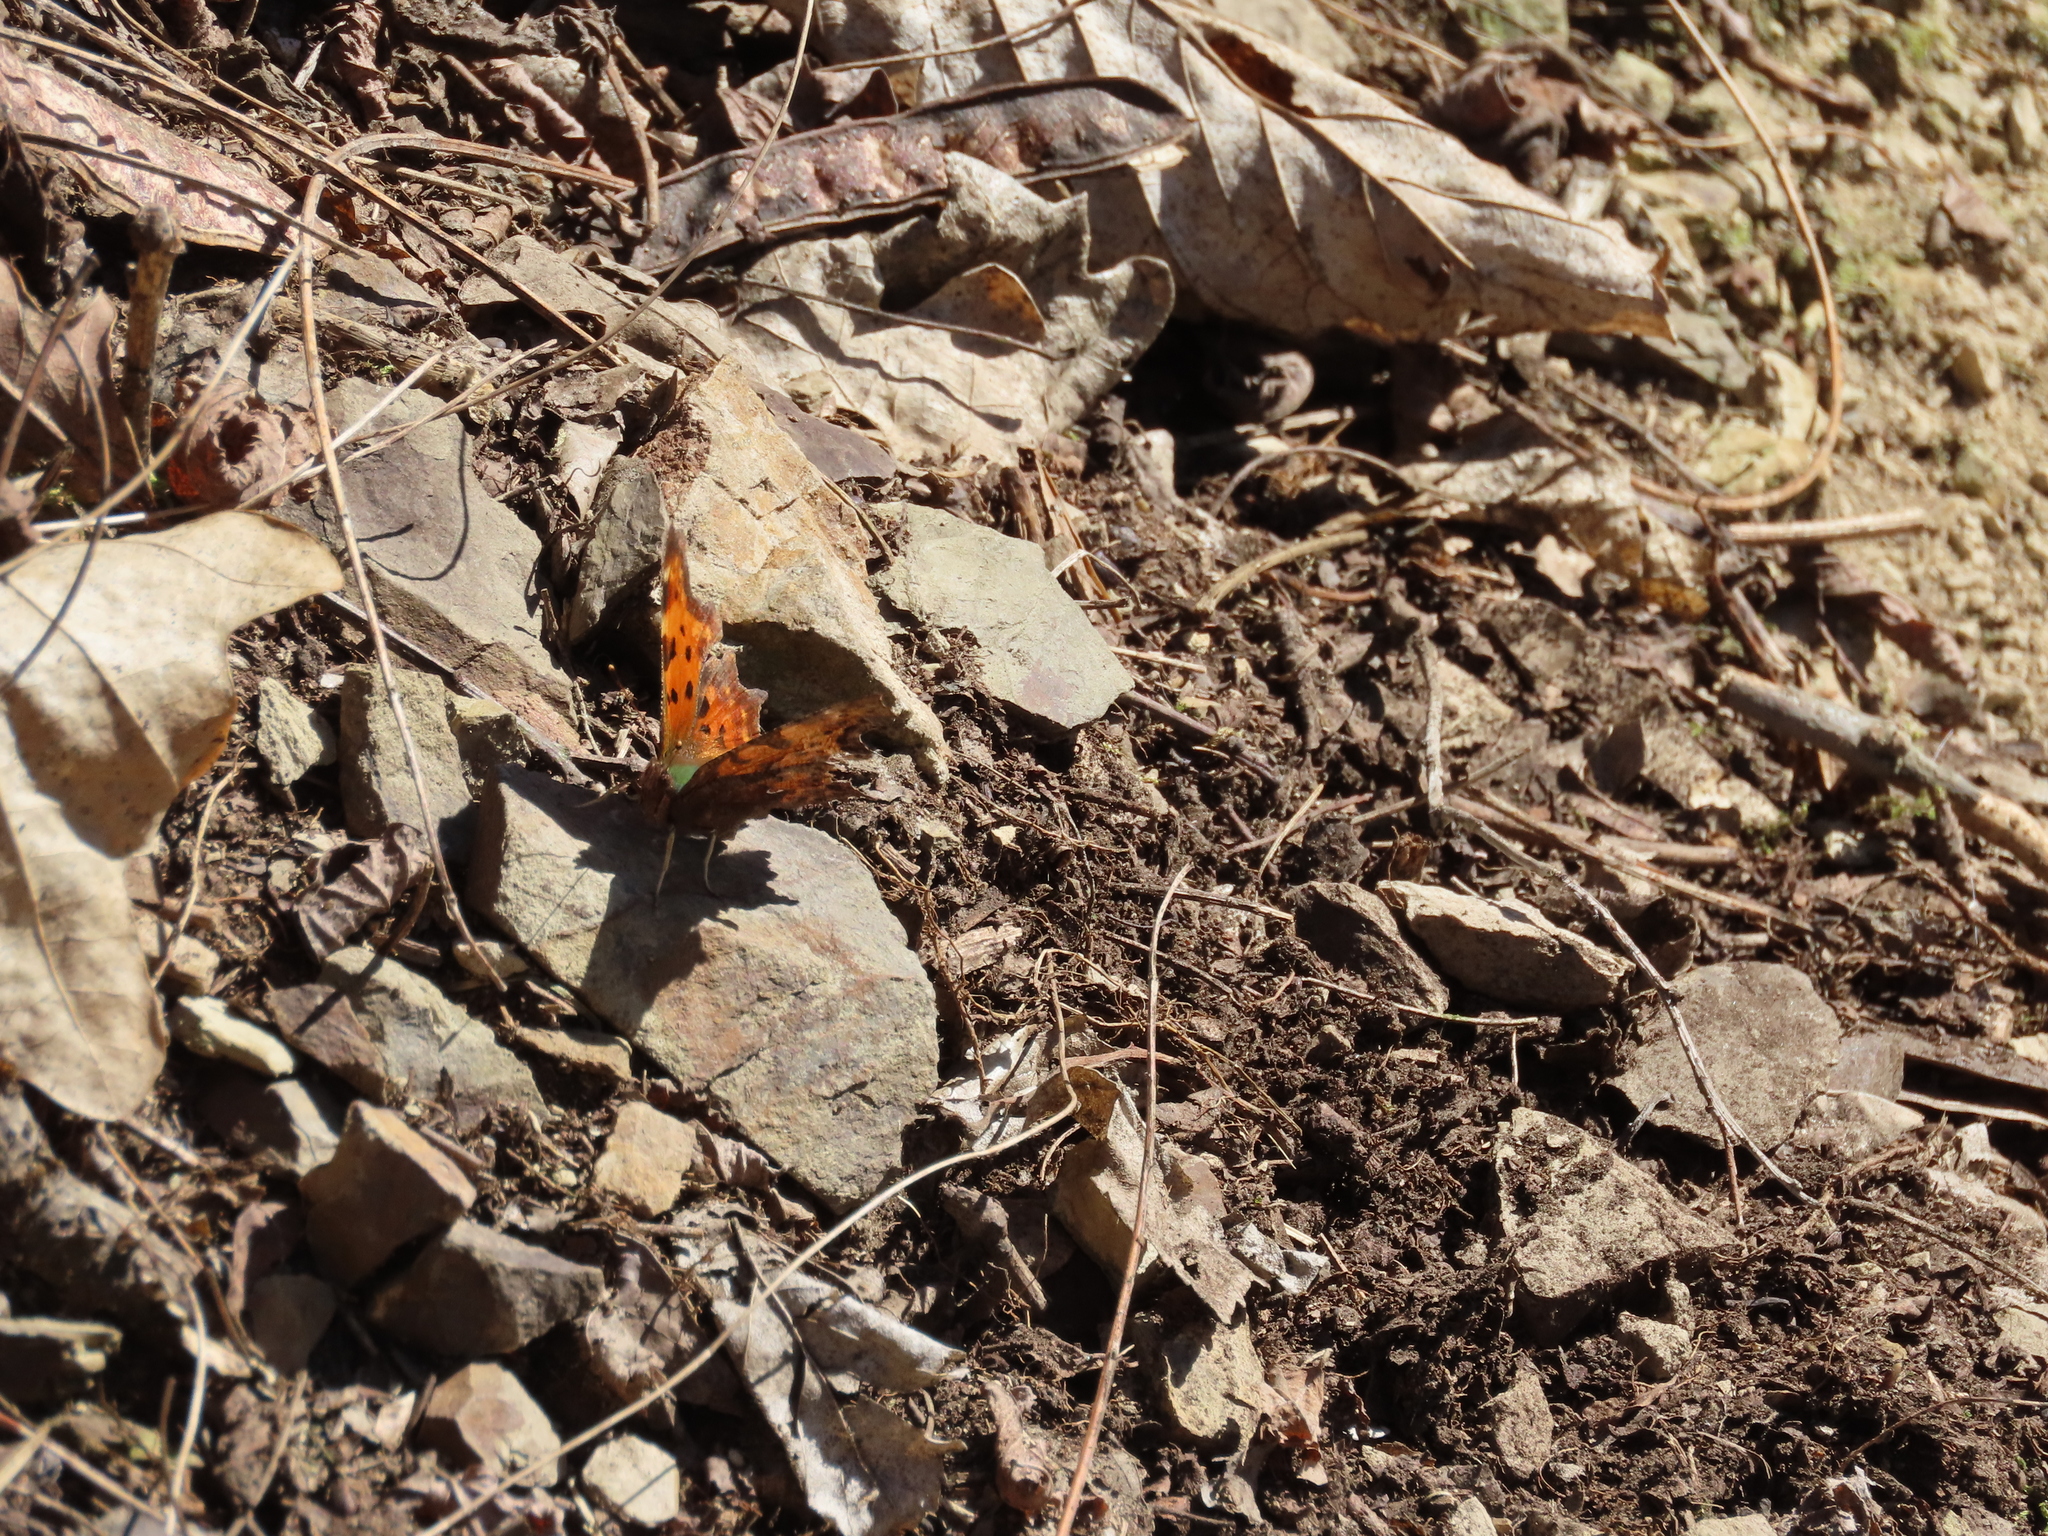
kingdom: Animalia
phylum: Arthropoda
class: Insecta
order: Lepidoptera
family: Nymphalidae
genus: Polygonia
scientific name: Polygonia c-album
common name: Comma
